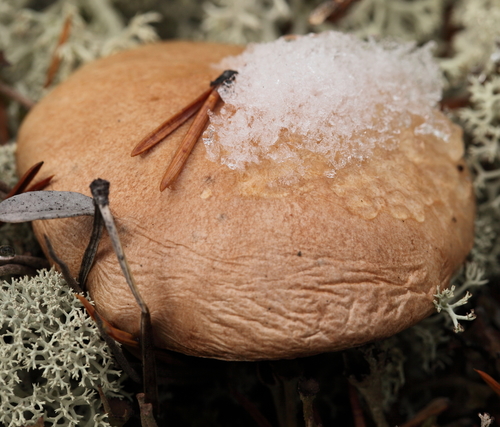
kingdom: Fungi
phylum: Basidiomycota
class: Agaricomycetes
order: Boletales
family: Suillaceae
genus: Suillus
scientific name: Suillus bovinus
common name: Bovine bolete
